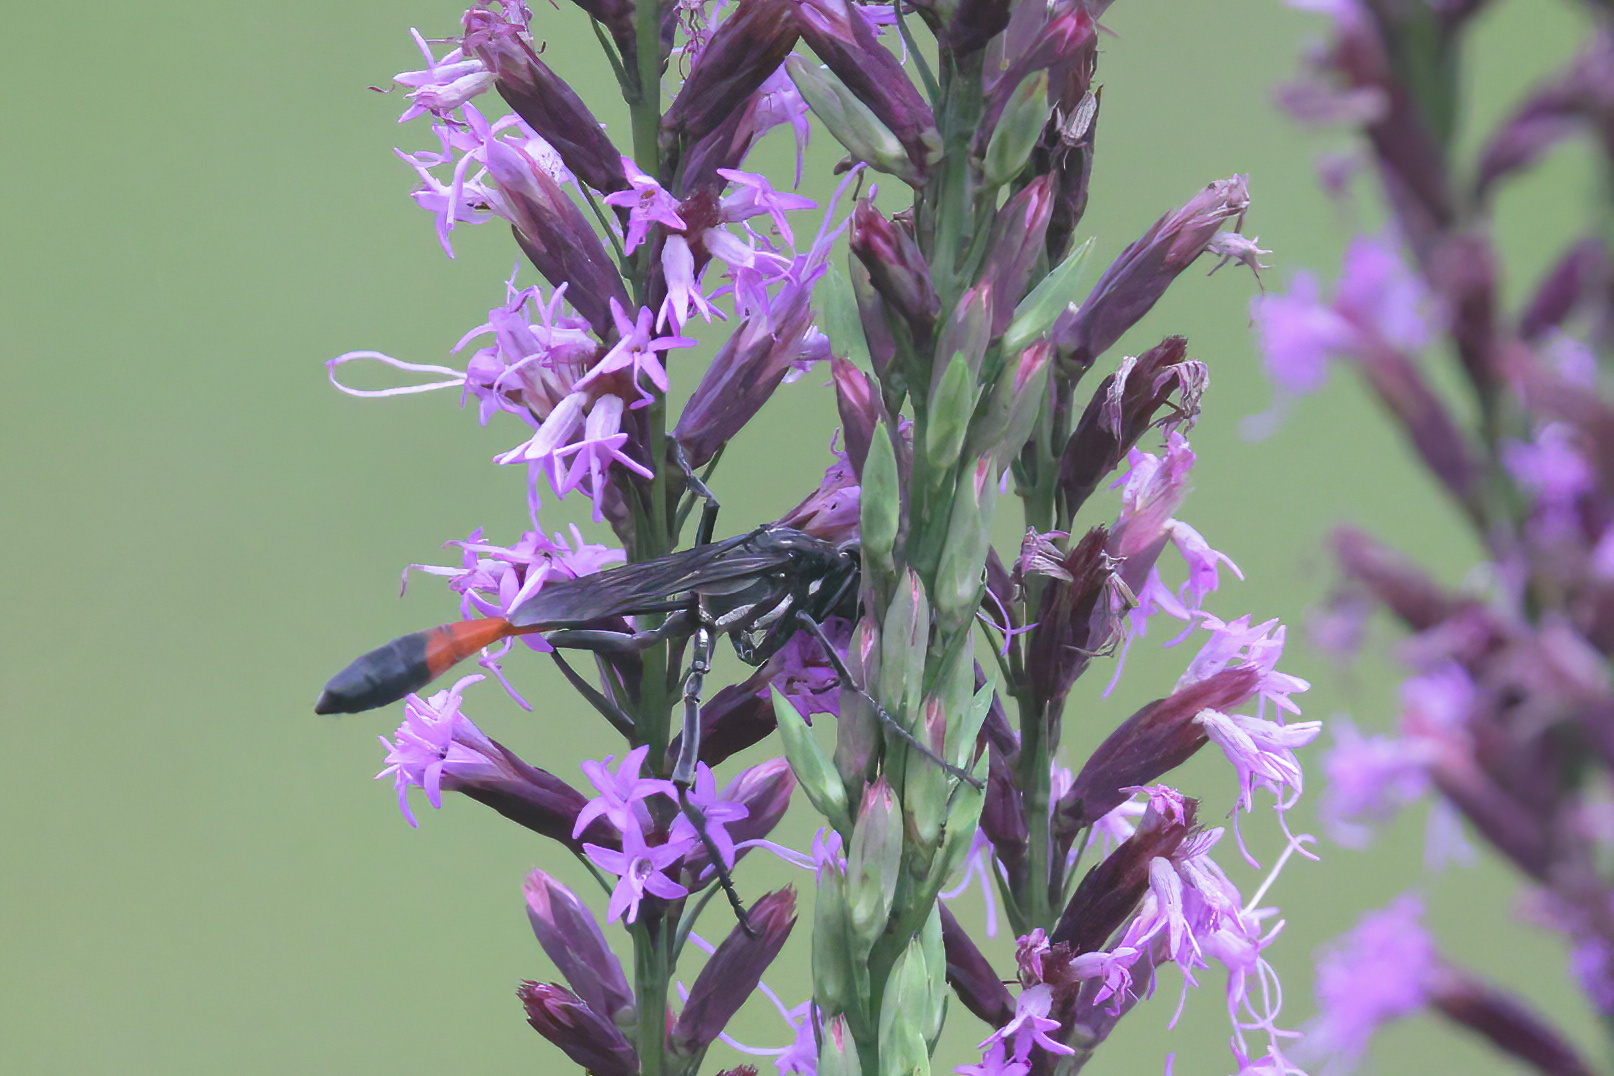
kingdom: Animalia
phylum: Arthropoda
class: Insecta
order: Hymenoptera
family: Sphecidae
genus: Ammophila
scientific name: Ammophila procera
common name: Common thread-waisted wasp
